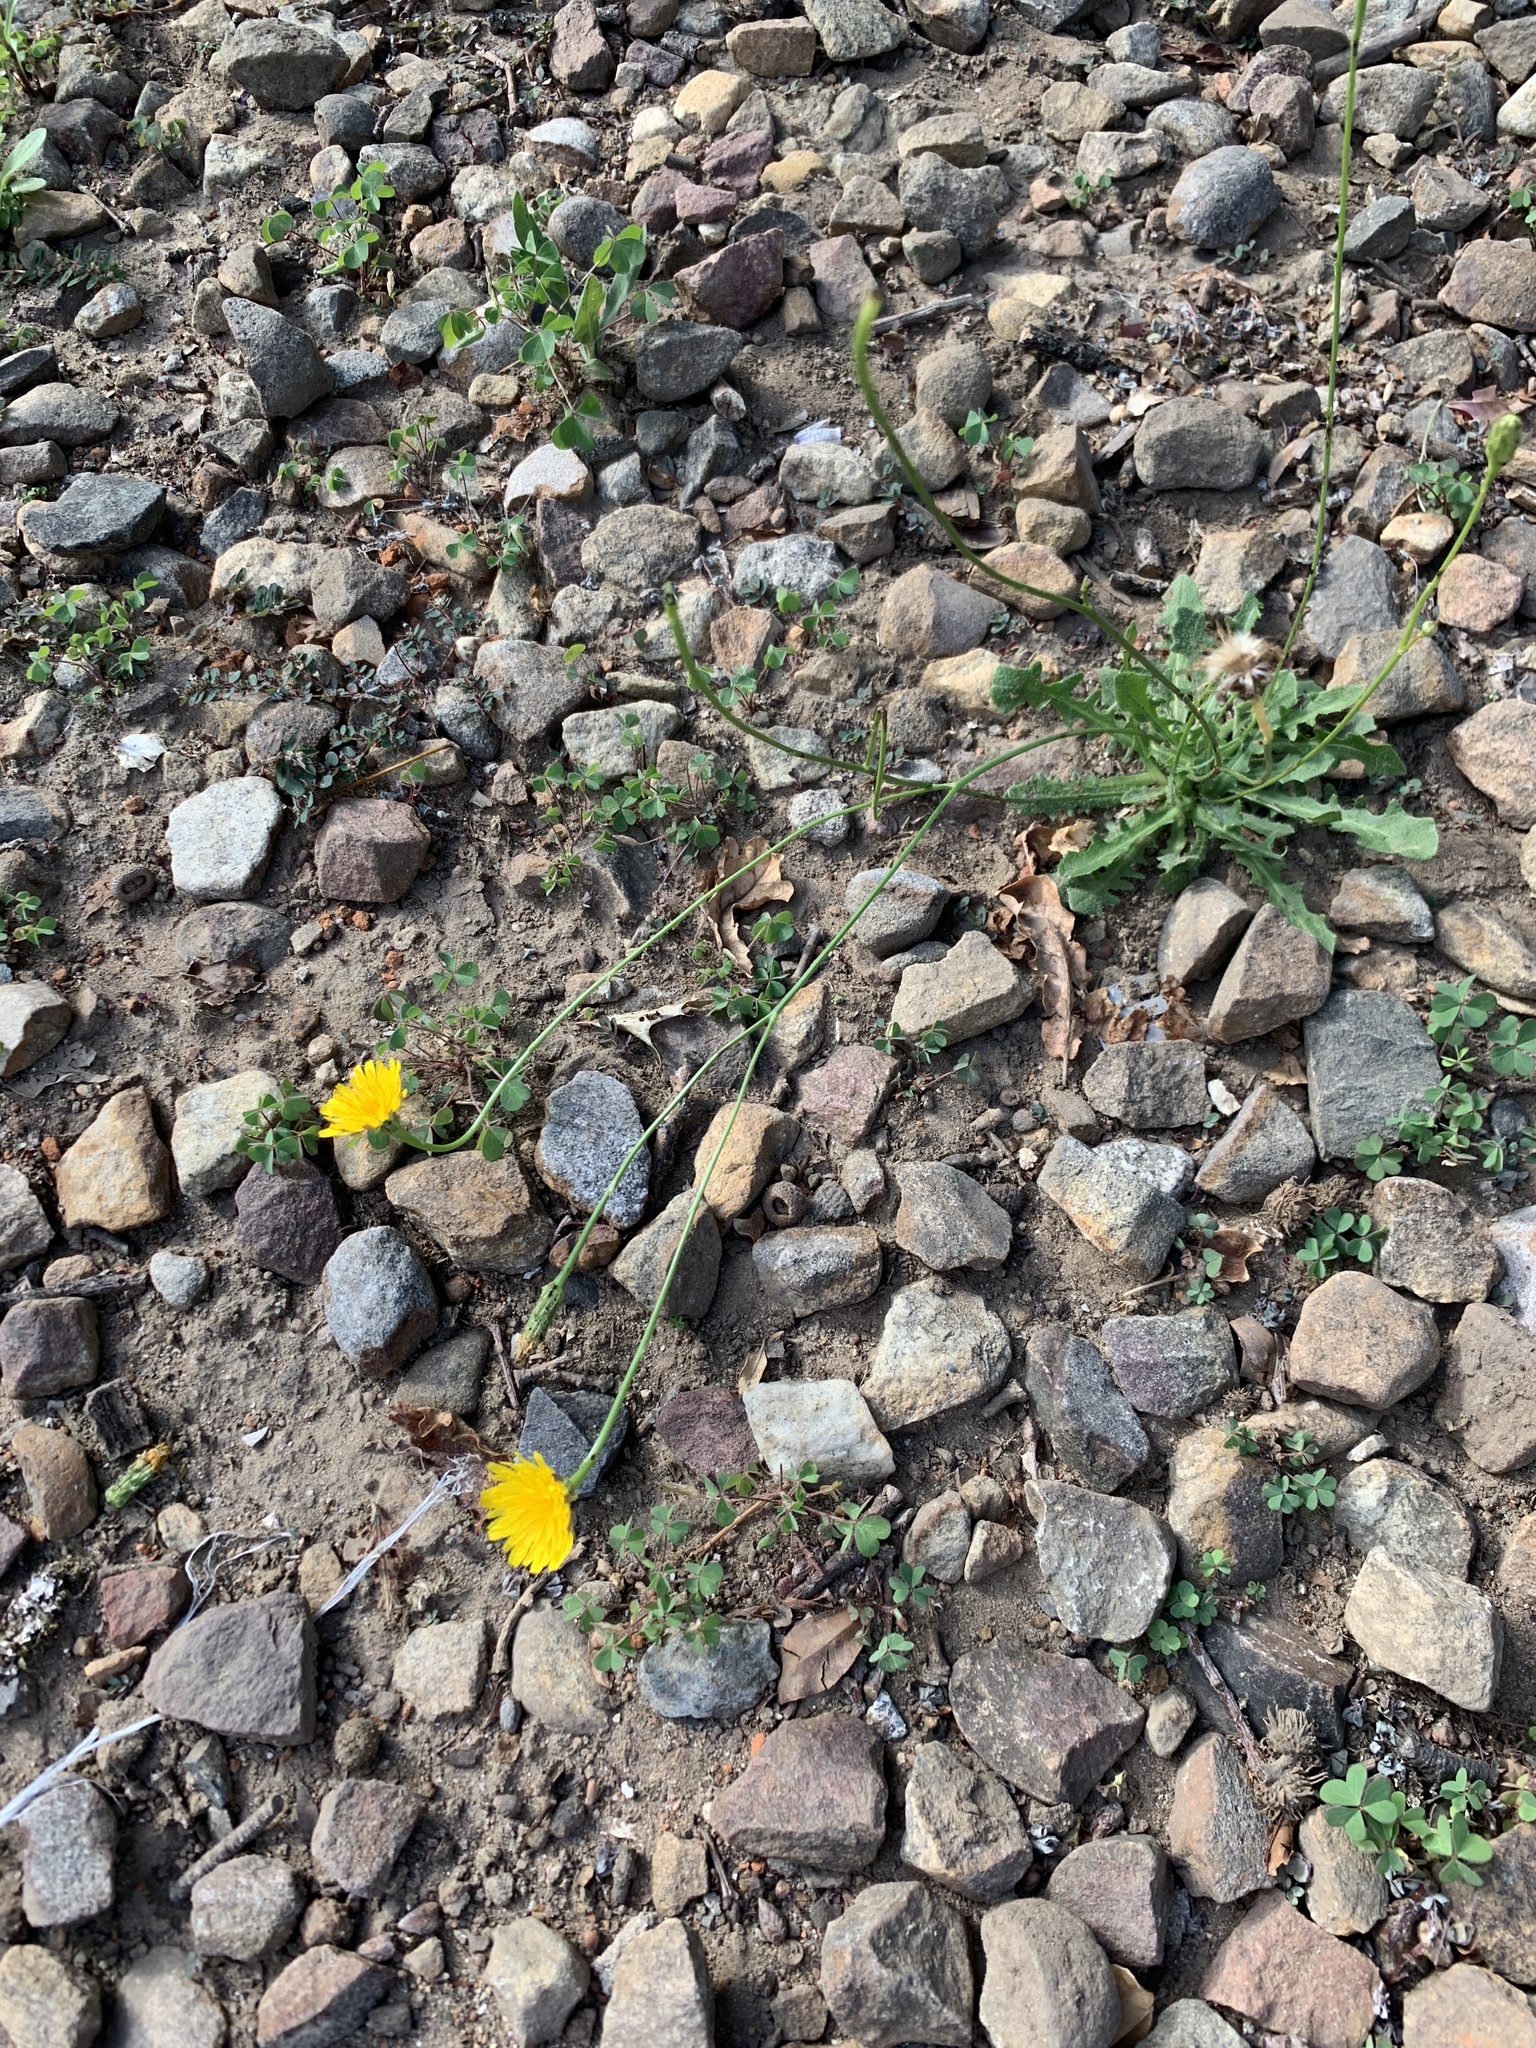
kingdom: Plantae
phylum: Tracheophyta
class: Magnoliopsida
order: Asterales
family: Asteraceae
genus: Hypochaeris
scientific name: Hypochaeris radicata
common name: Flatweed
